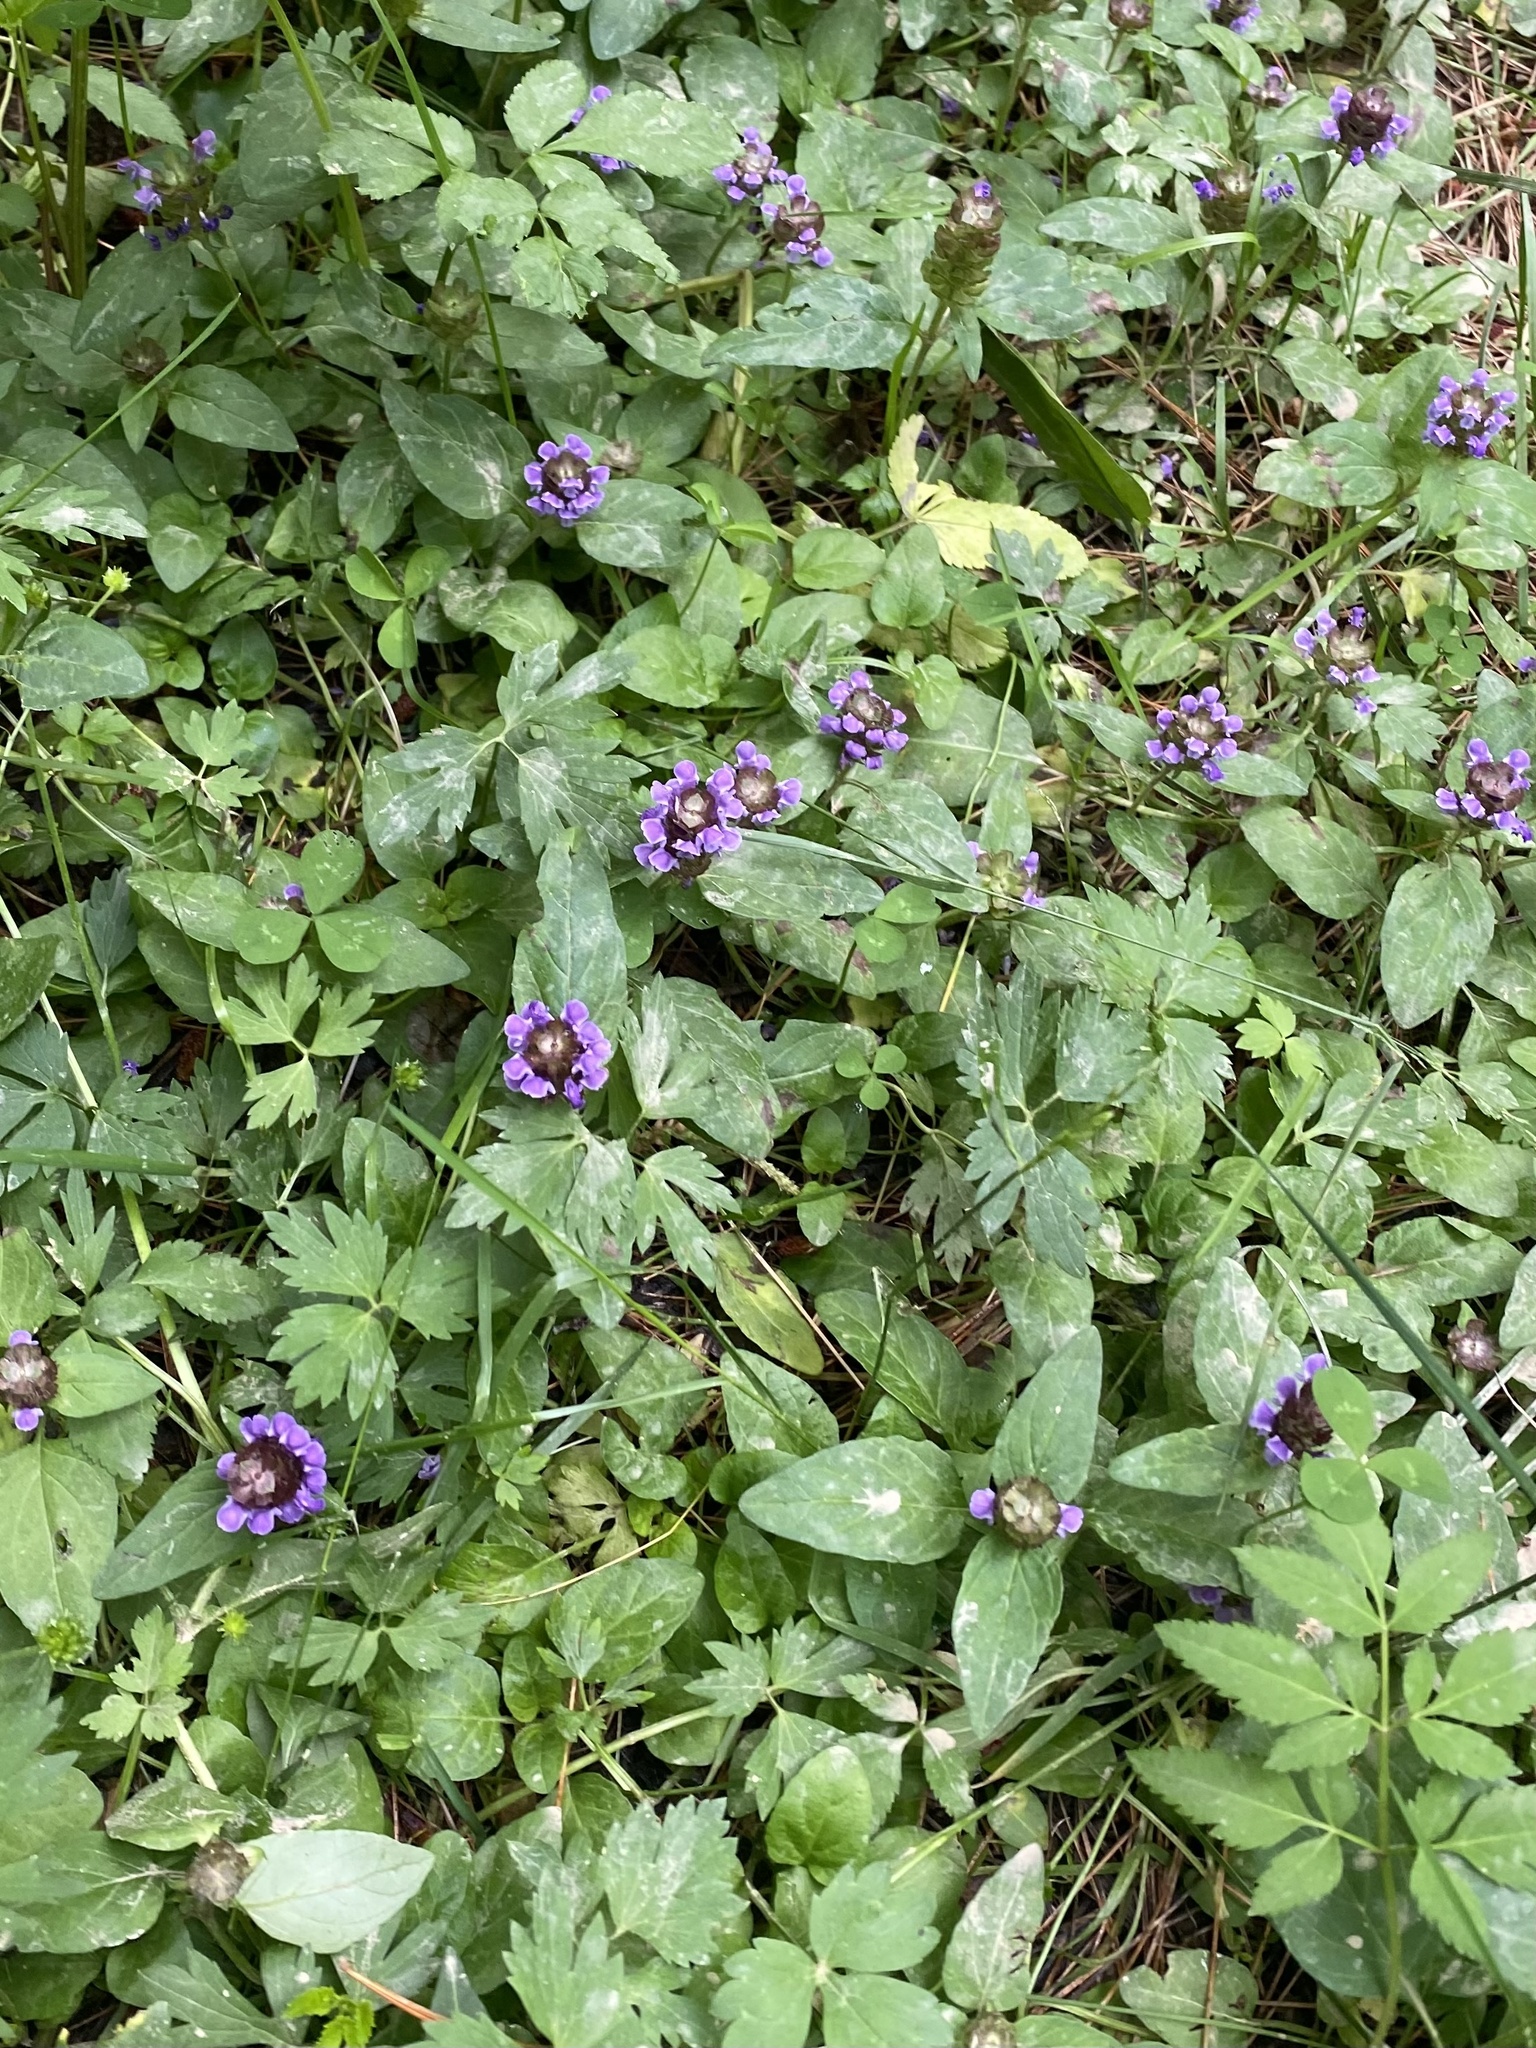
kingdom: Plantae
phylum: Tracheophyta
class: Magnoliopsida
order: Lamiales
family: Lamiaceae
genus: Prunella
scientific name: Prunella vulgaris
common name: Heal-all
